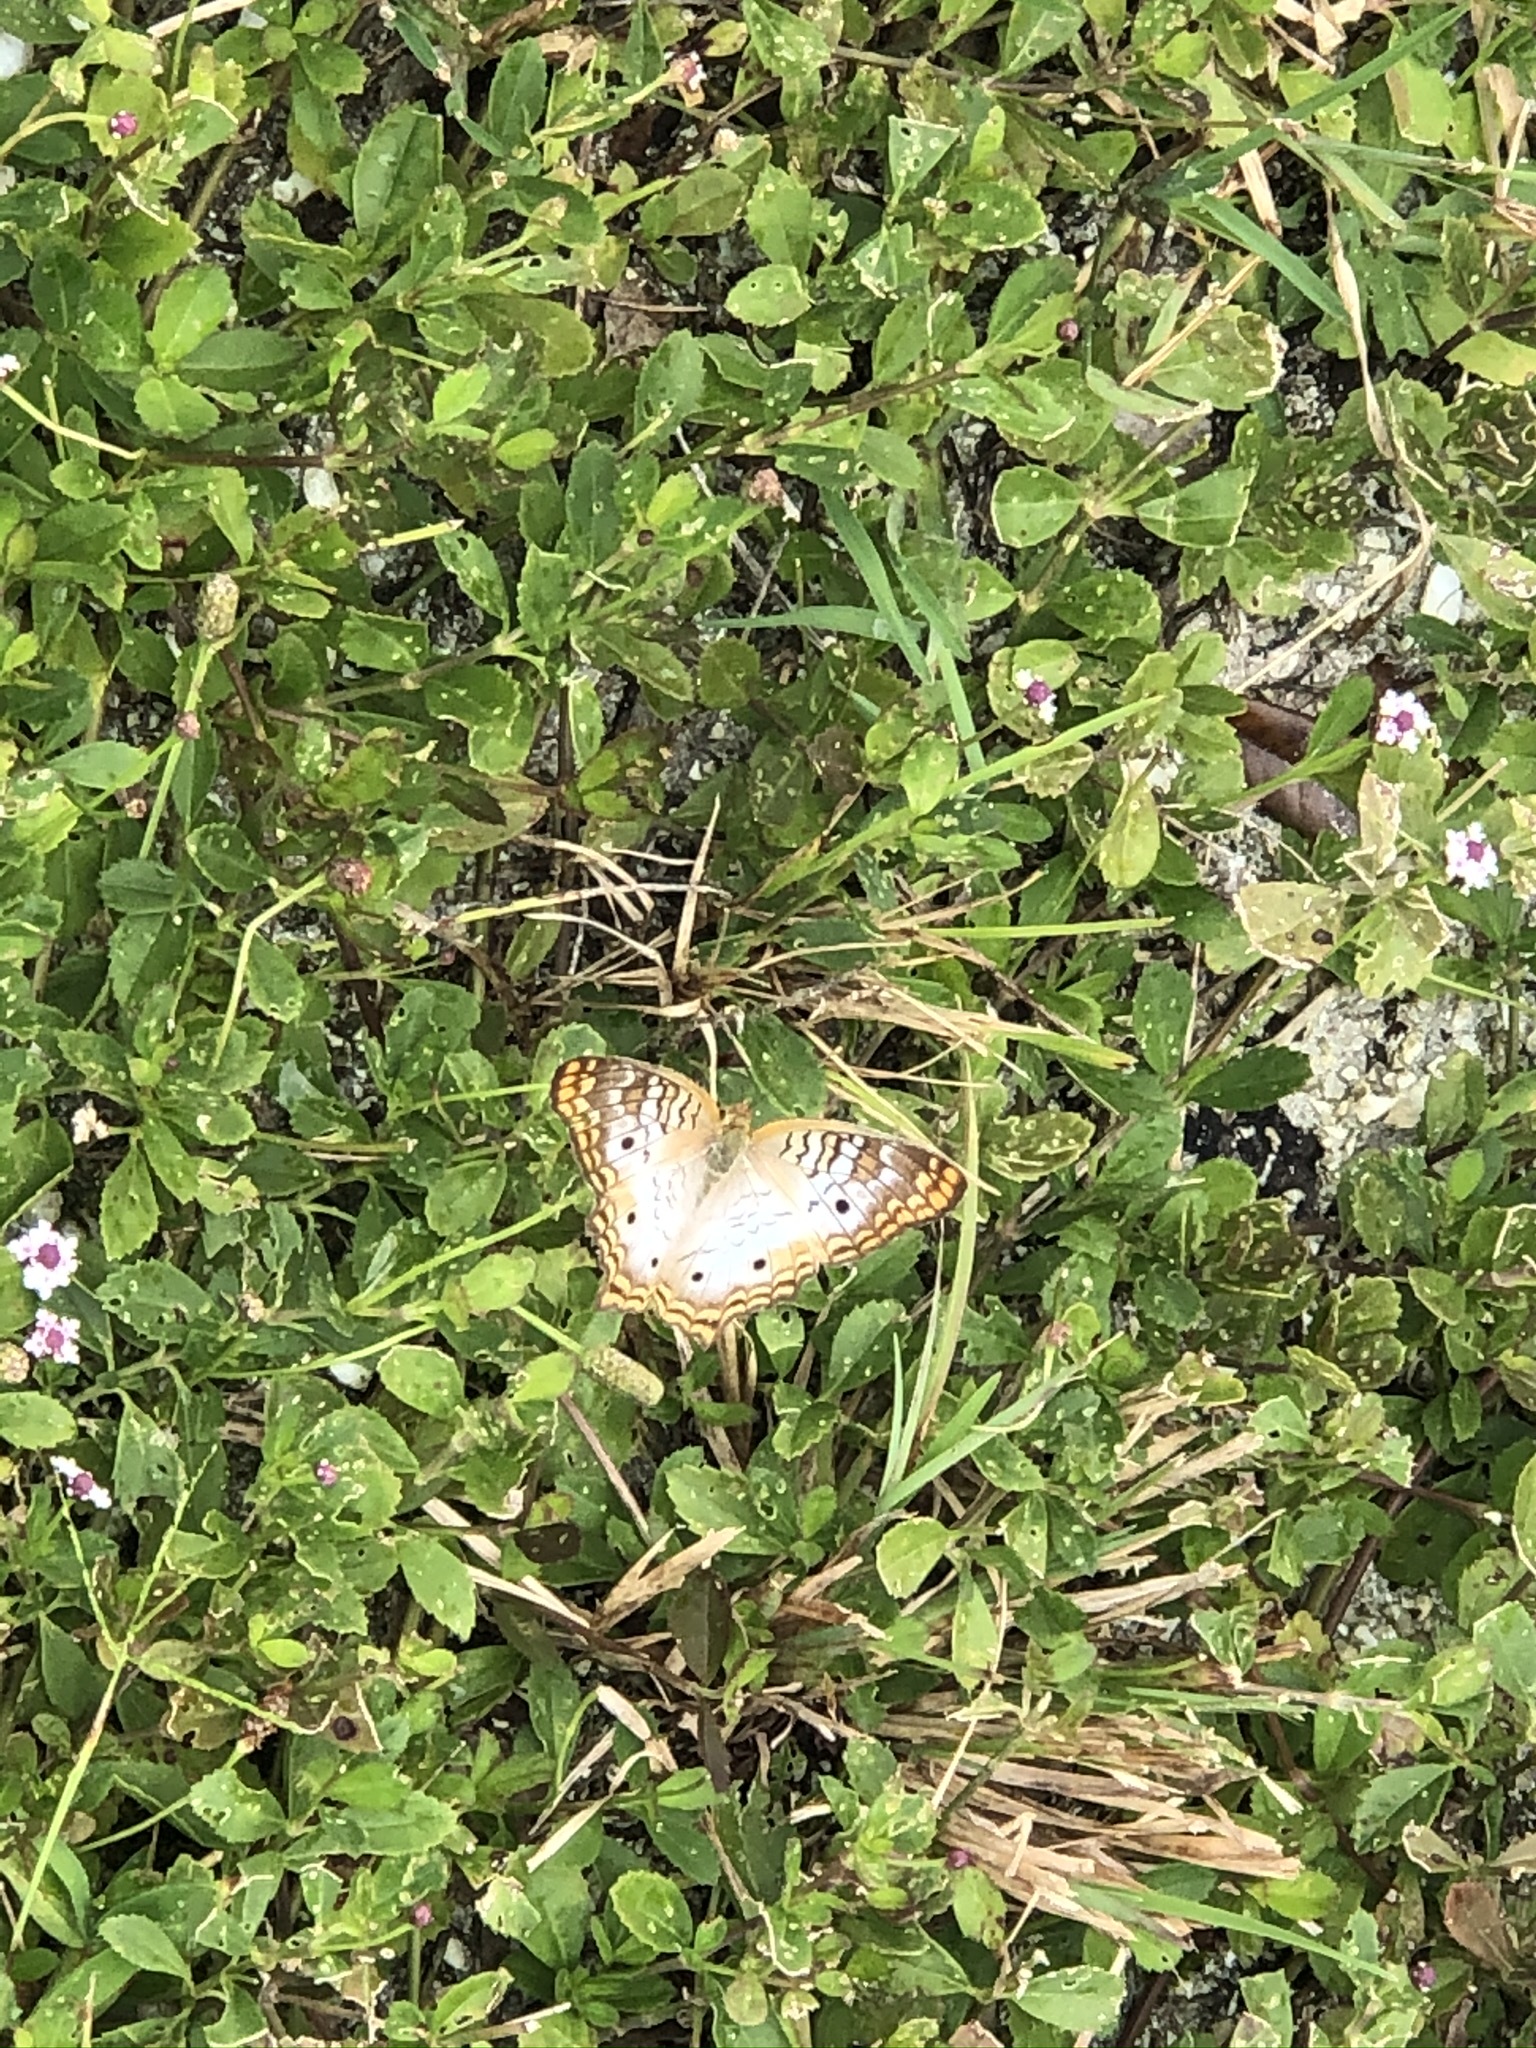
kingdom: Animalia
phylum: Arthropoda
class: Insecta
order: Lepidoptera
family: Nymphalidae
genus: Anartia
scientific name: Anartia jatrophae
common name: White peacock
